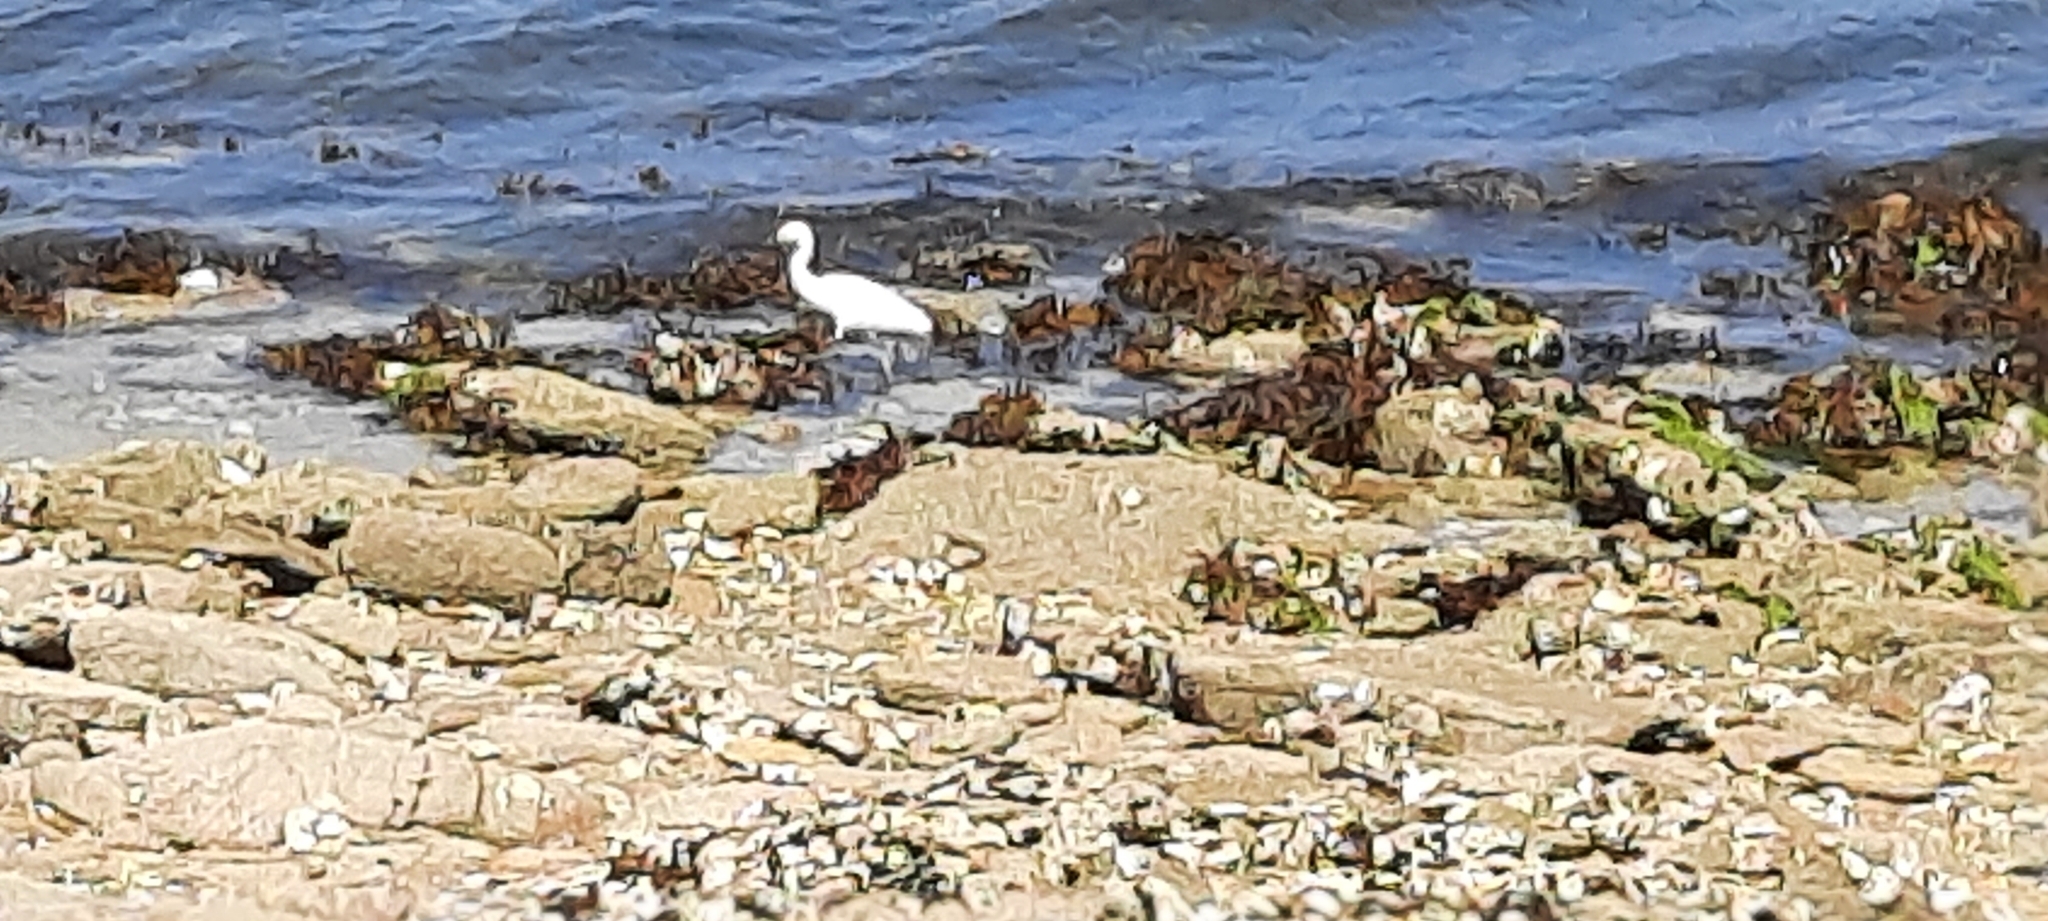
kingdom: Animalia
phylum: Chordata
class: Aves
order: Pelecaniformes
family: Ardeidae
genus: Egretta
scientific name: Egretta garzetta
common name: Little egret
